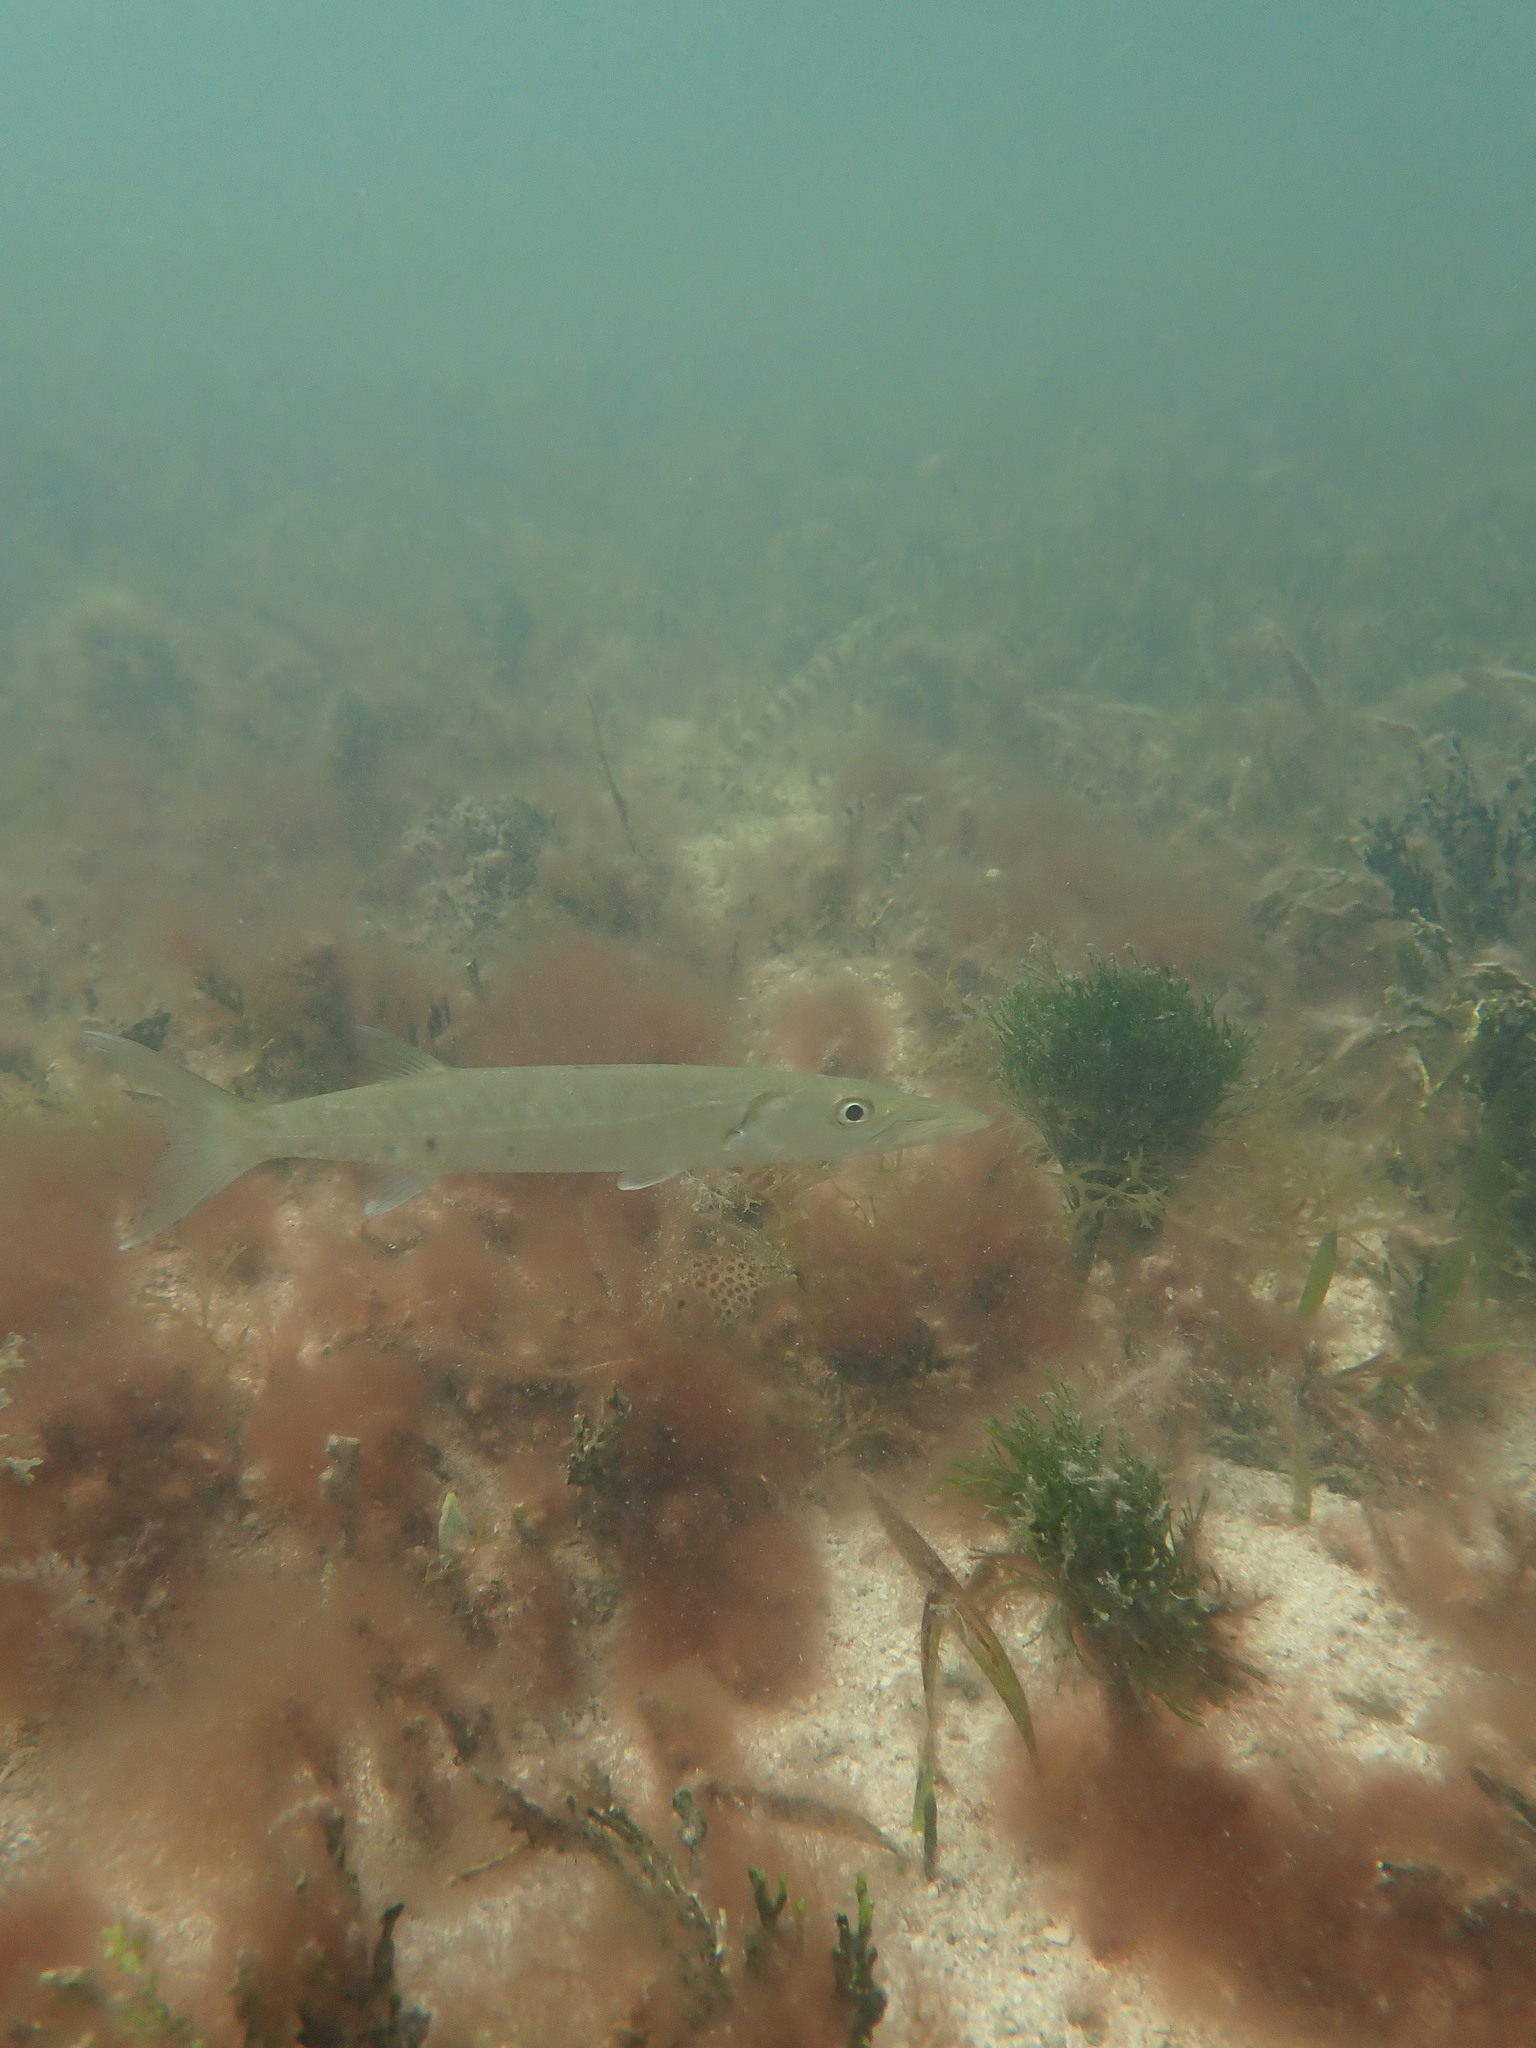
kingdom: Animalia
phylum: Chordata
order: Perciformes
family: Sphyraenidae
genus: Sphyraena
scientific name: Sphyraena barracuda
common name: Great barracuda
